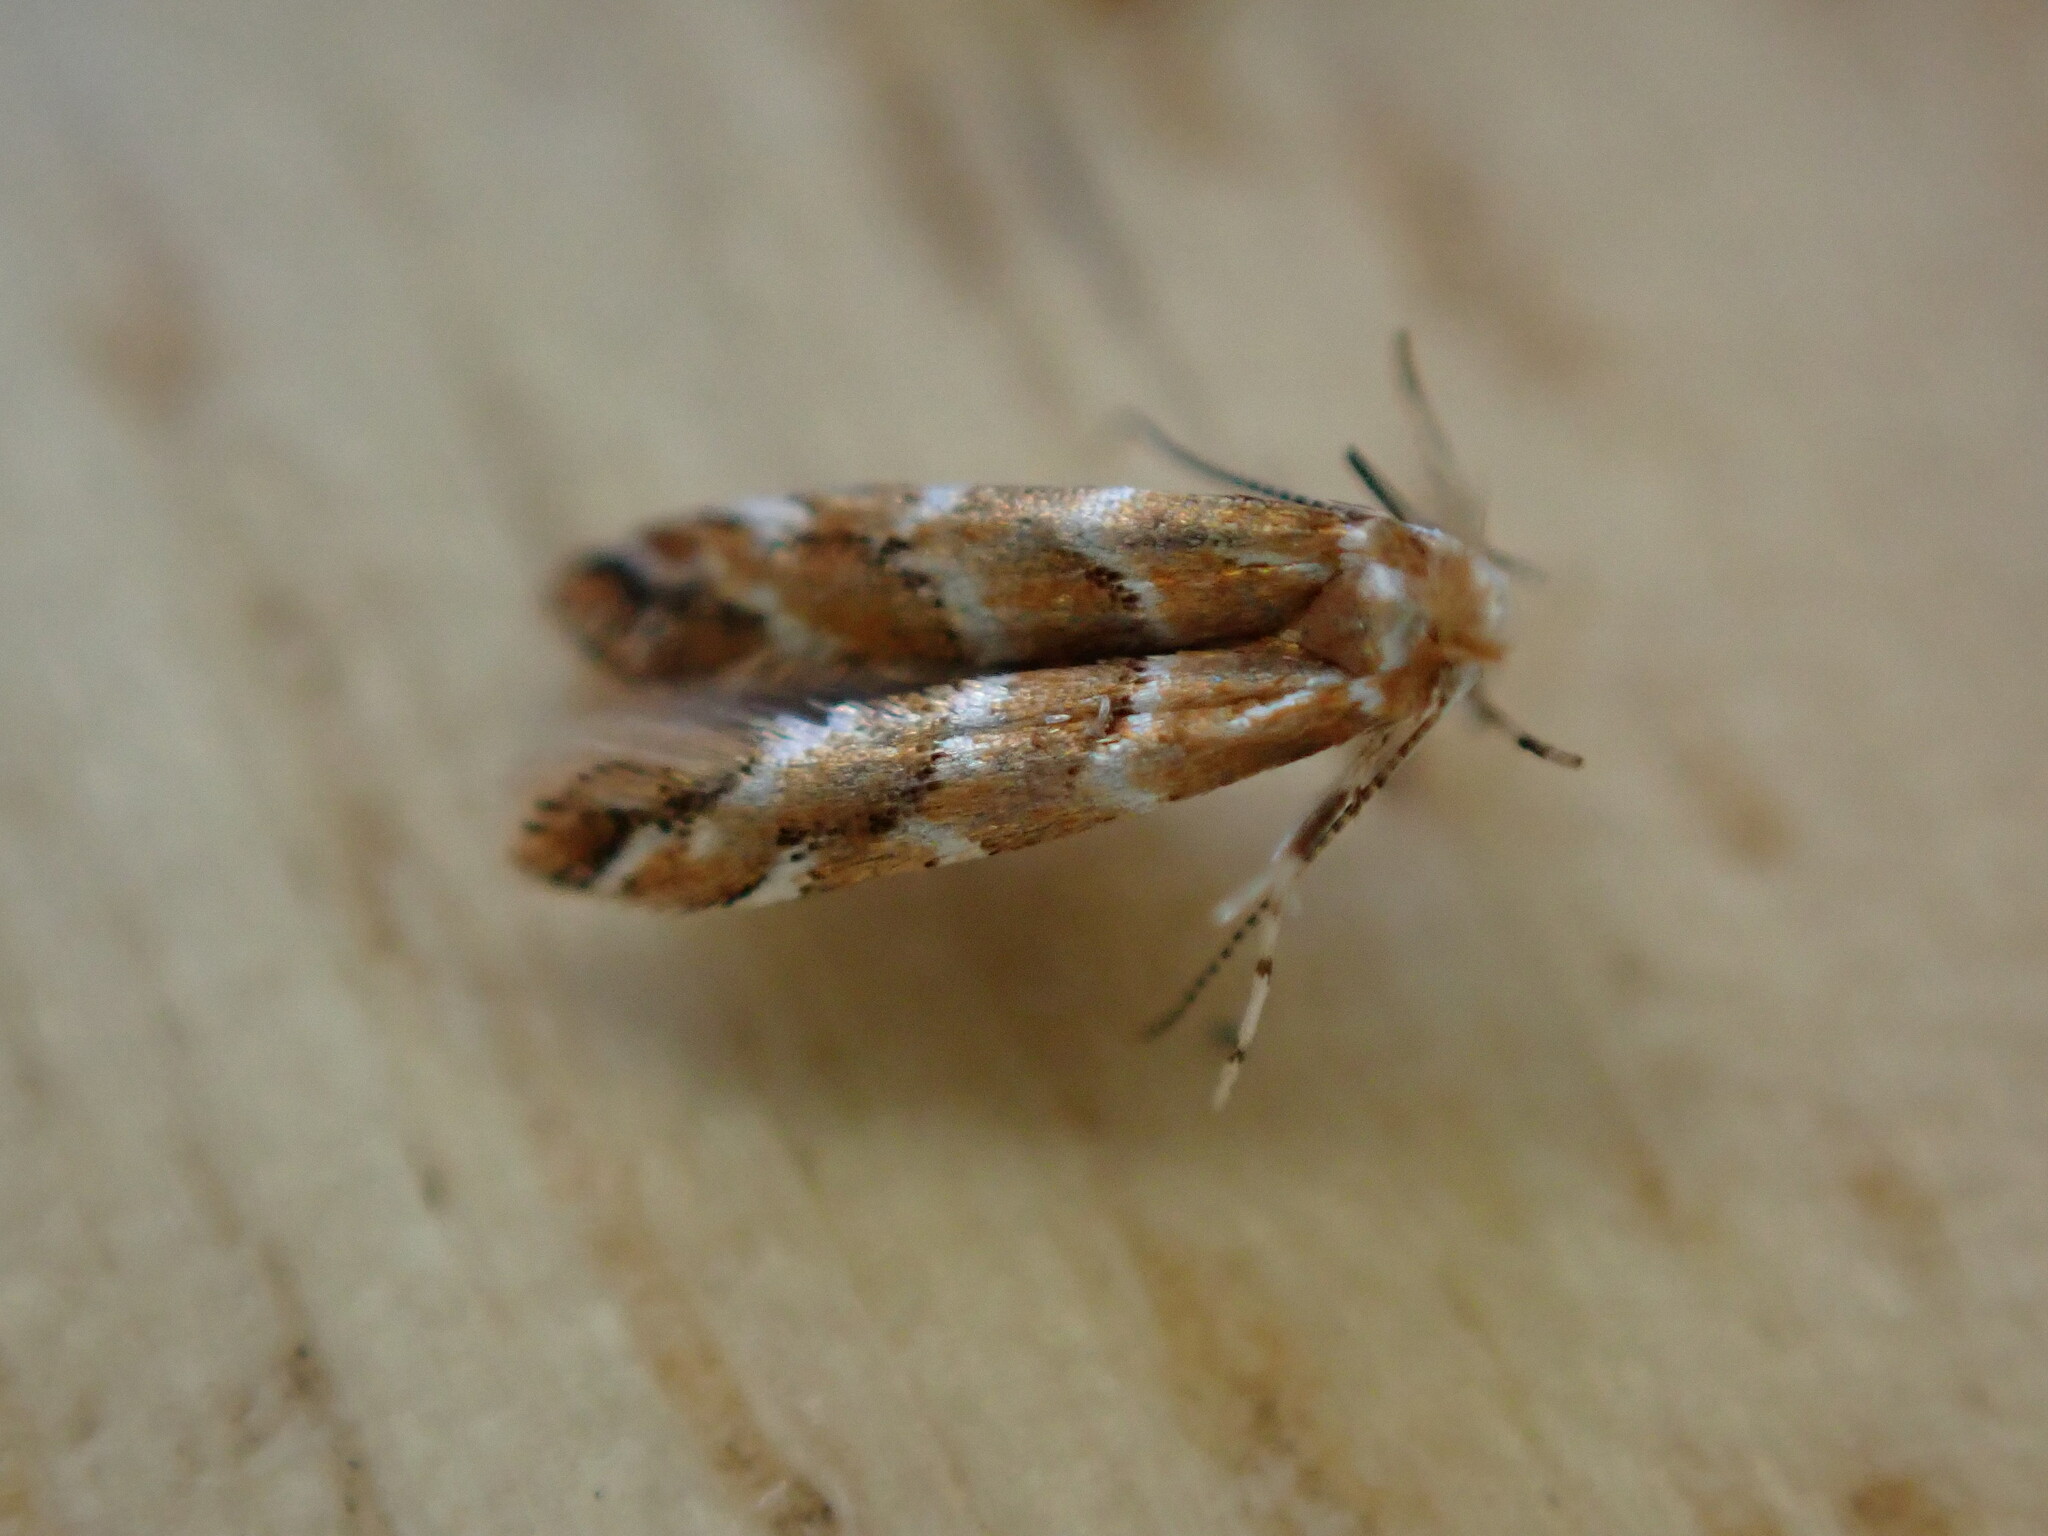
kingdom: Animalia
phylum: Arthropoda
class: Insecta
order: Lepidoptera
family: Gracillariidae
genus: Cameraria
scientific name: Cameraria ohridella
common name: Horse-chestnut leaf-miner
